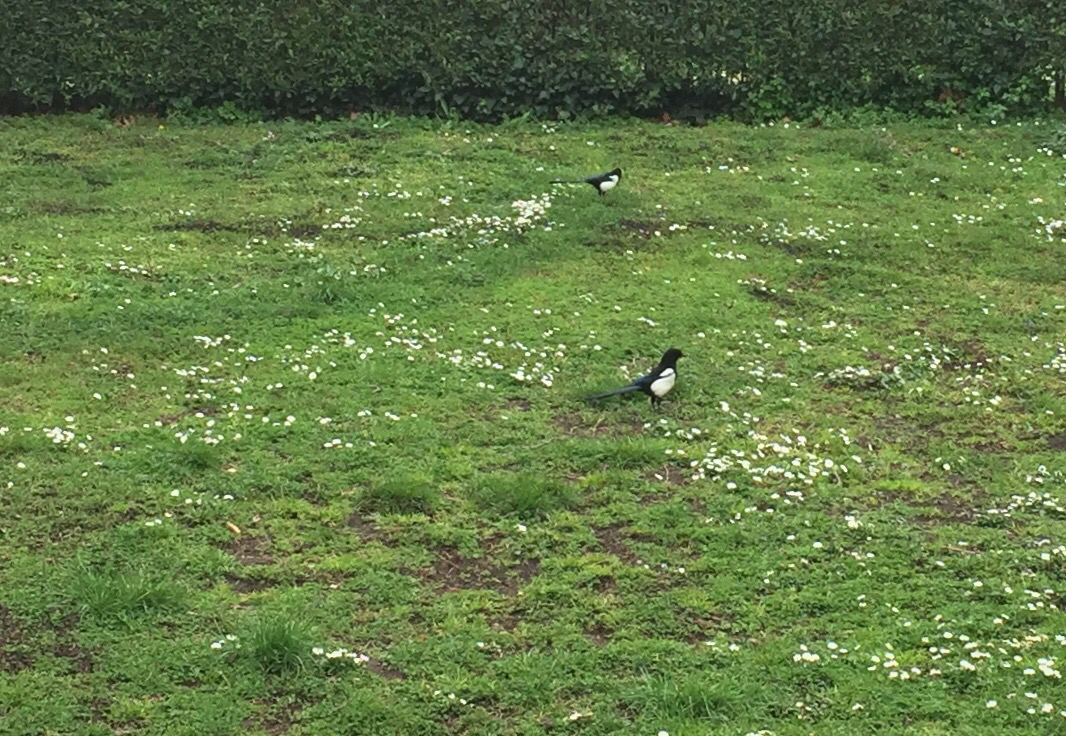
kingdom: Animalia
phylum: Chordata
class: Aves
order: Passeriformes
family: Corvidae
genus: Pica
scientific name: Pica pica
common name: Eurasian magpie
